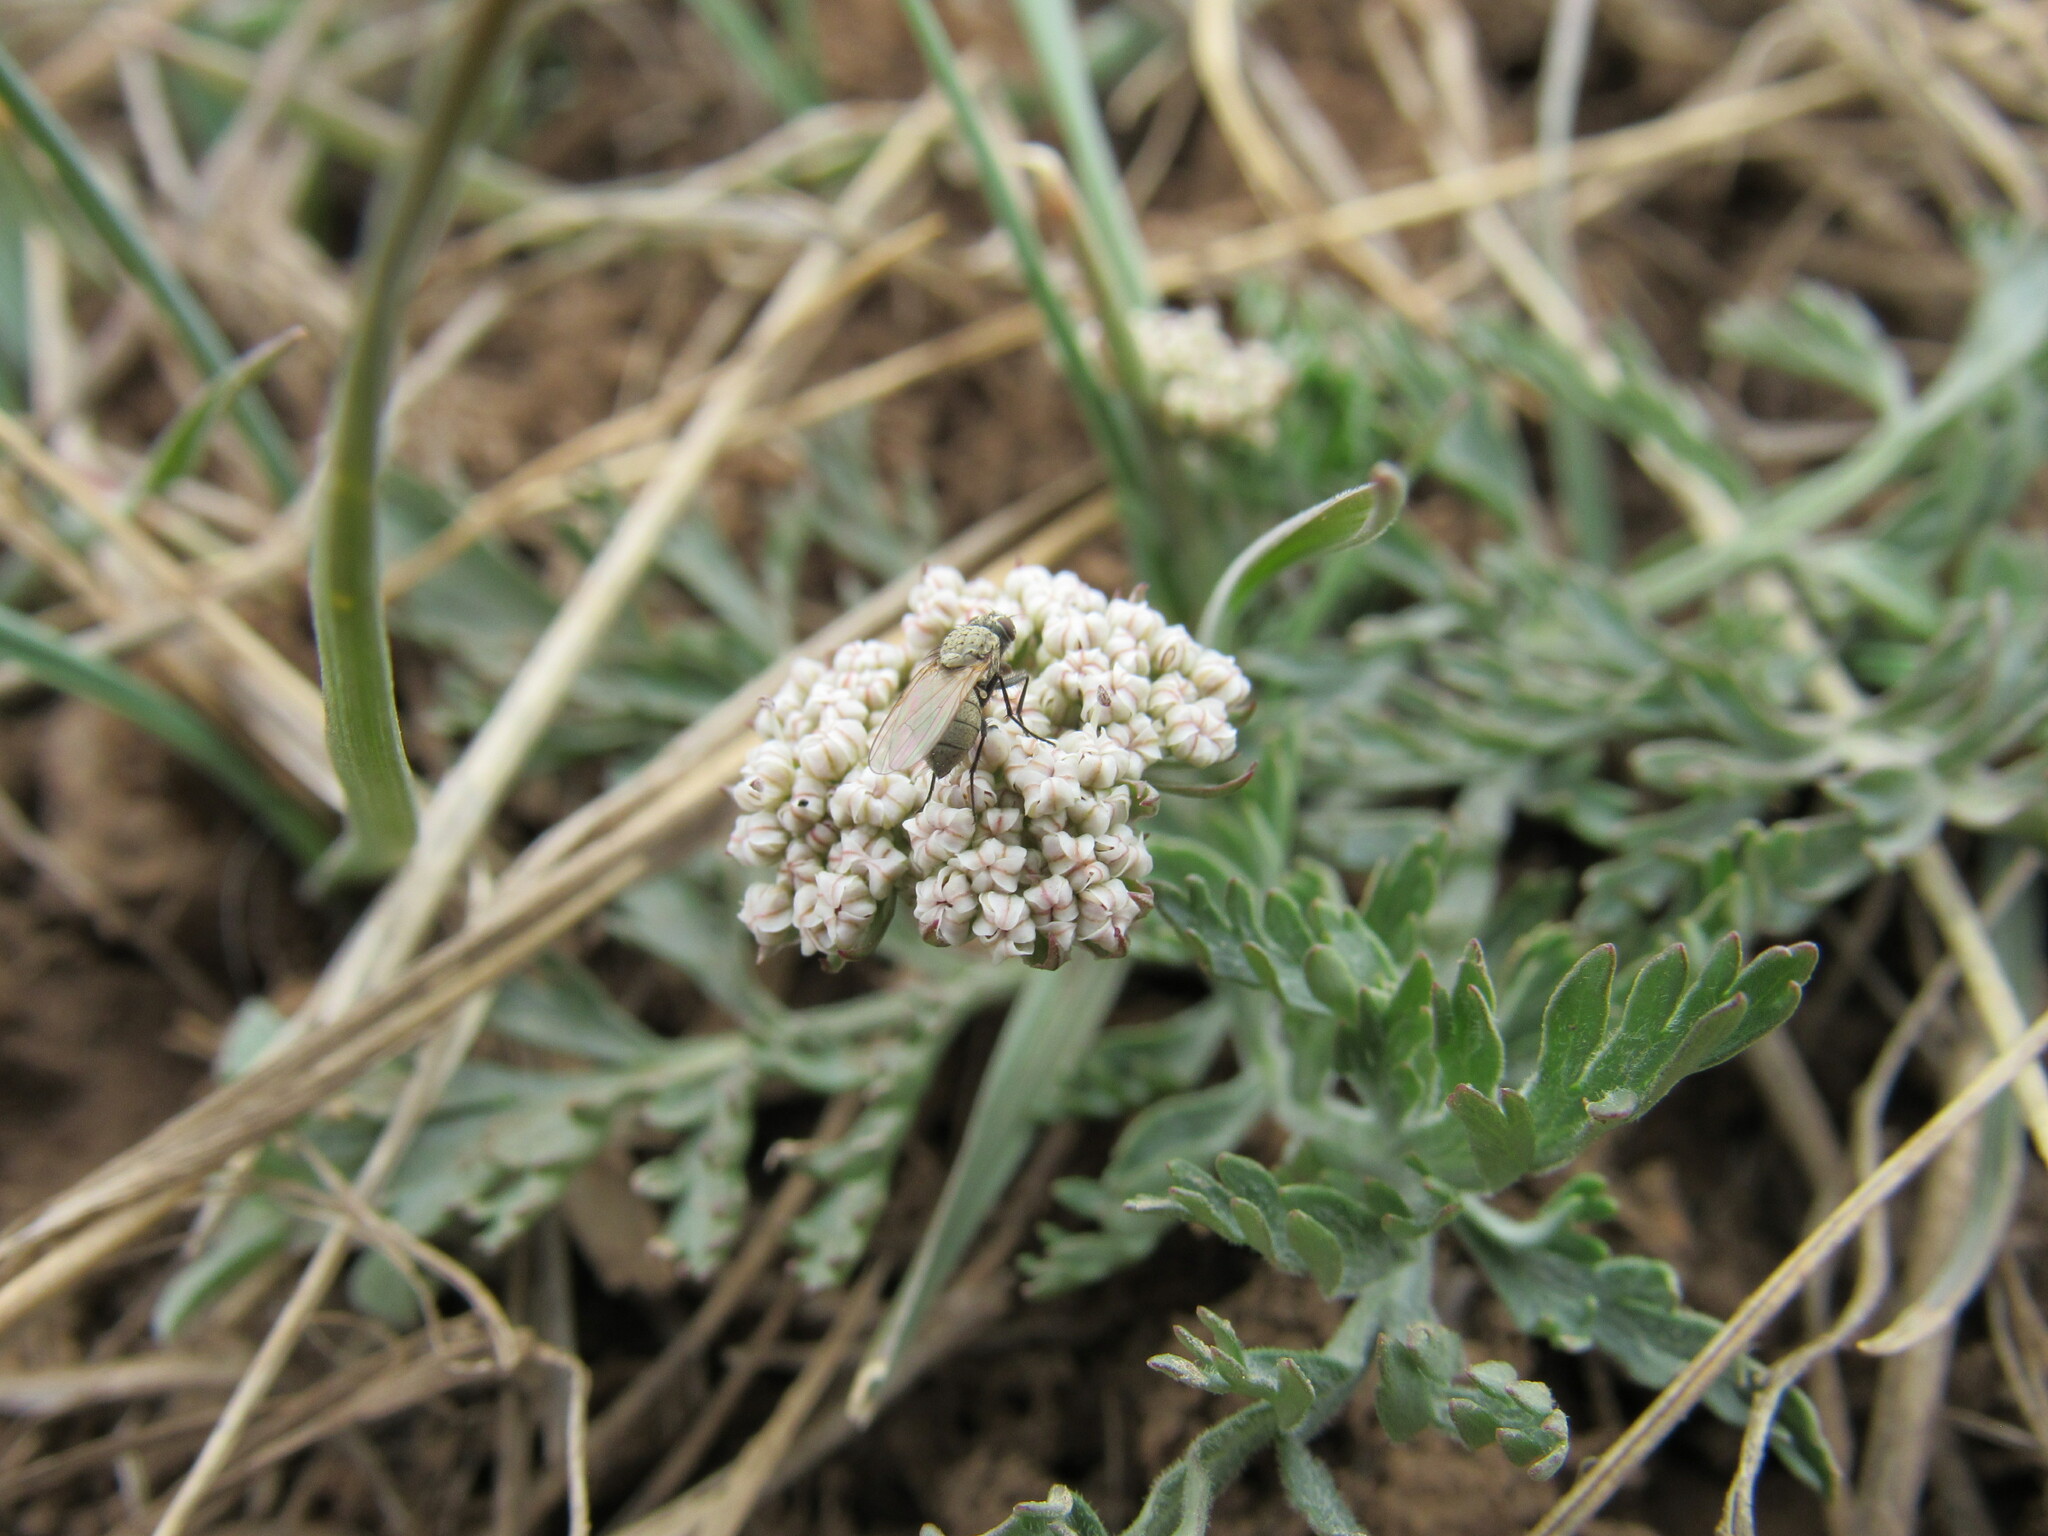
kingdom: Plantae
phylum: Tracheophyta
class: Magnoliopsida
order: Apiales
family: Apiaceae
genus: Lomatium
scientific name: Lomatium orientale
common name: Eastern cous
